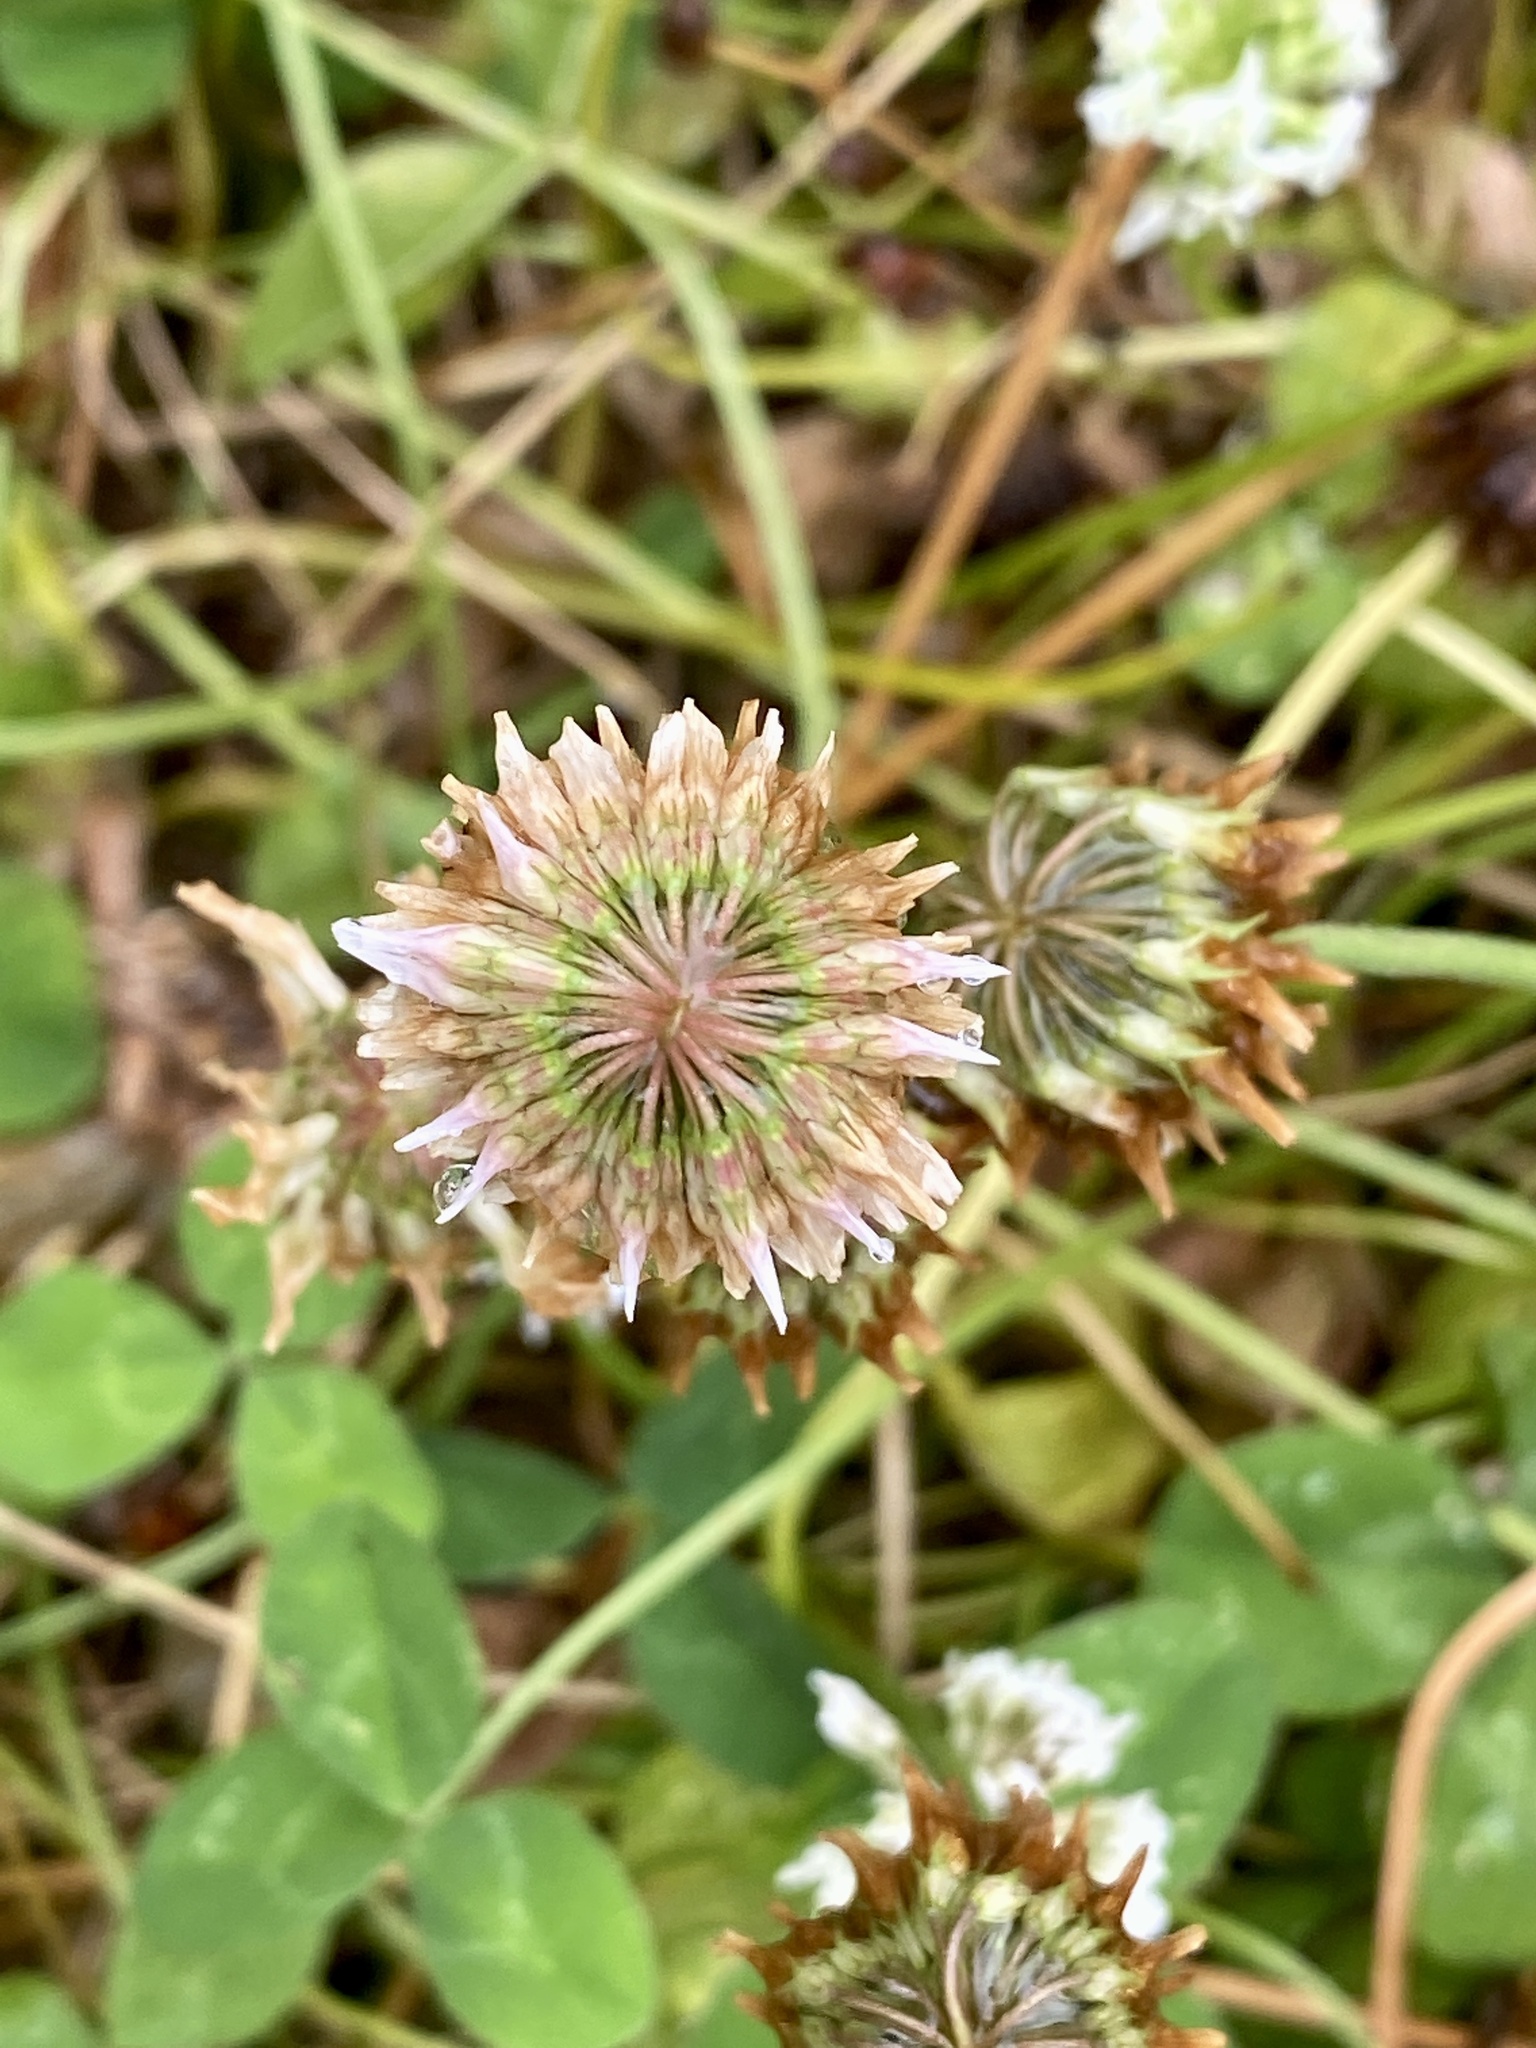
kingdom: Plantae
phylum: Tracheophyta
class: Magnoliopsida
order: Fabales
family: Fabaceae
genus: Trifolium
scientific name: Trifolium repens
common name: White clover
